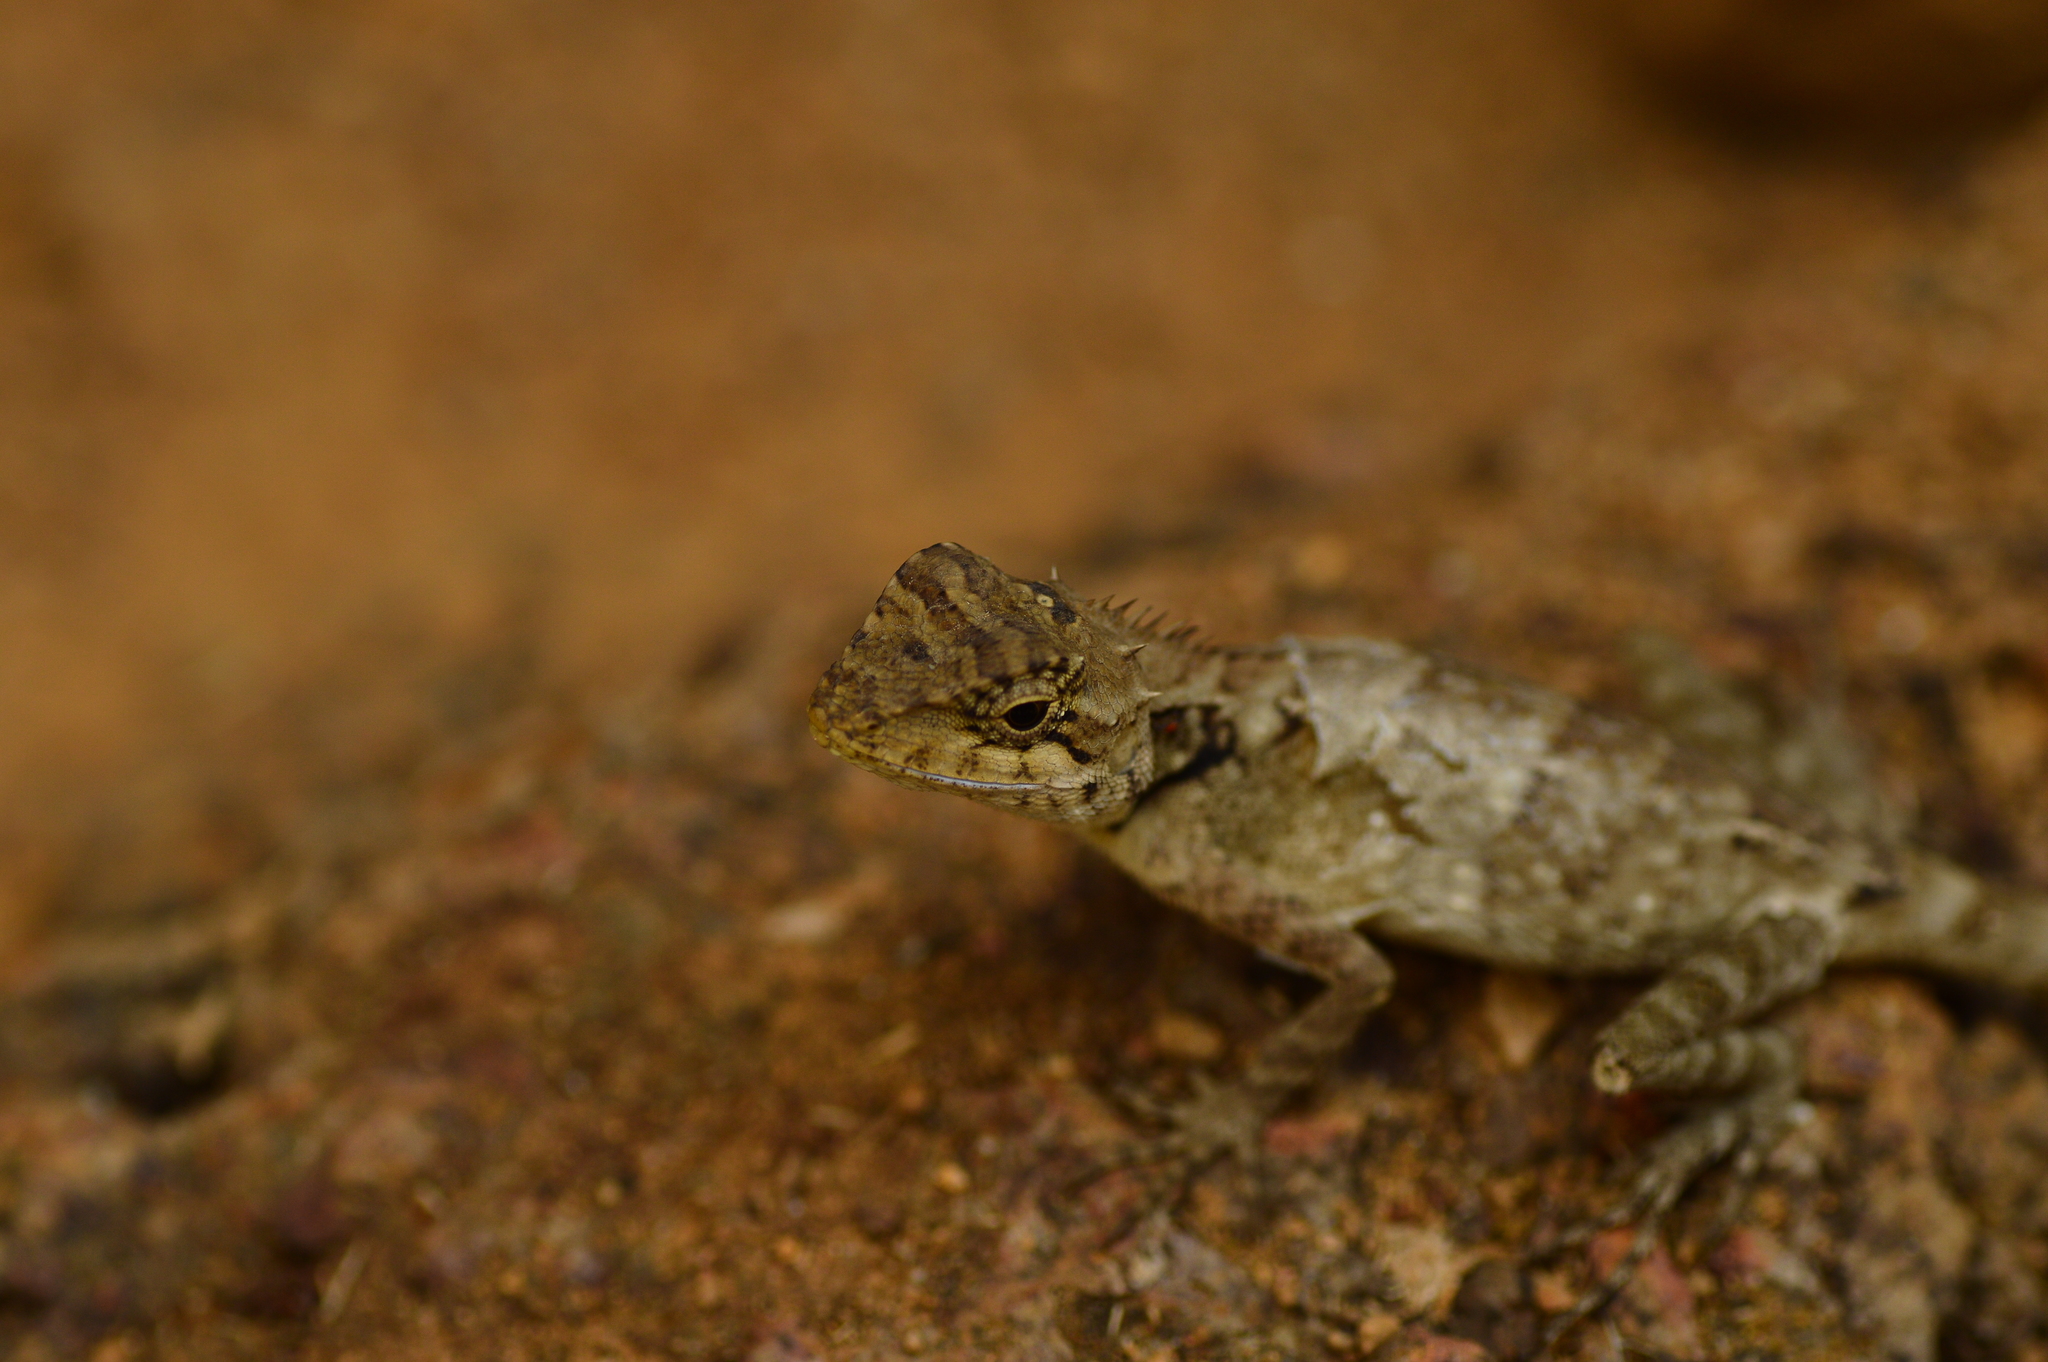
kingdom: Animalia
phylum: Chordata
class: Squamata
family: Agamidae
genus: Monilesaurus
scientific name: Monilesaurus rouxii
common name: Roux's forest lizard
